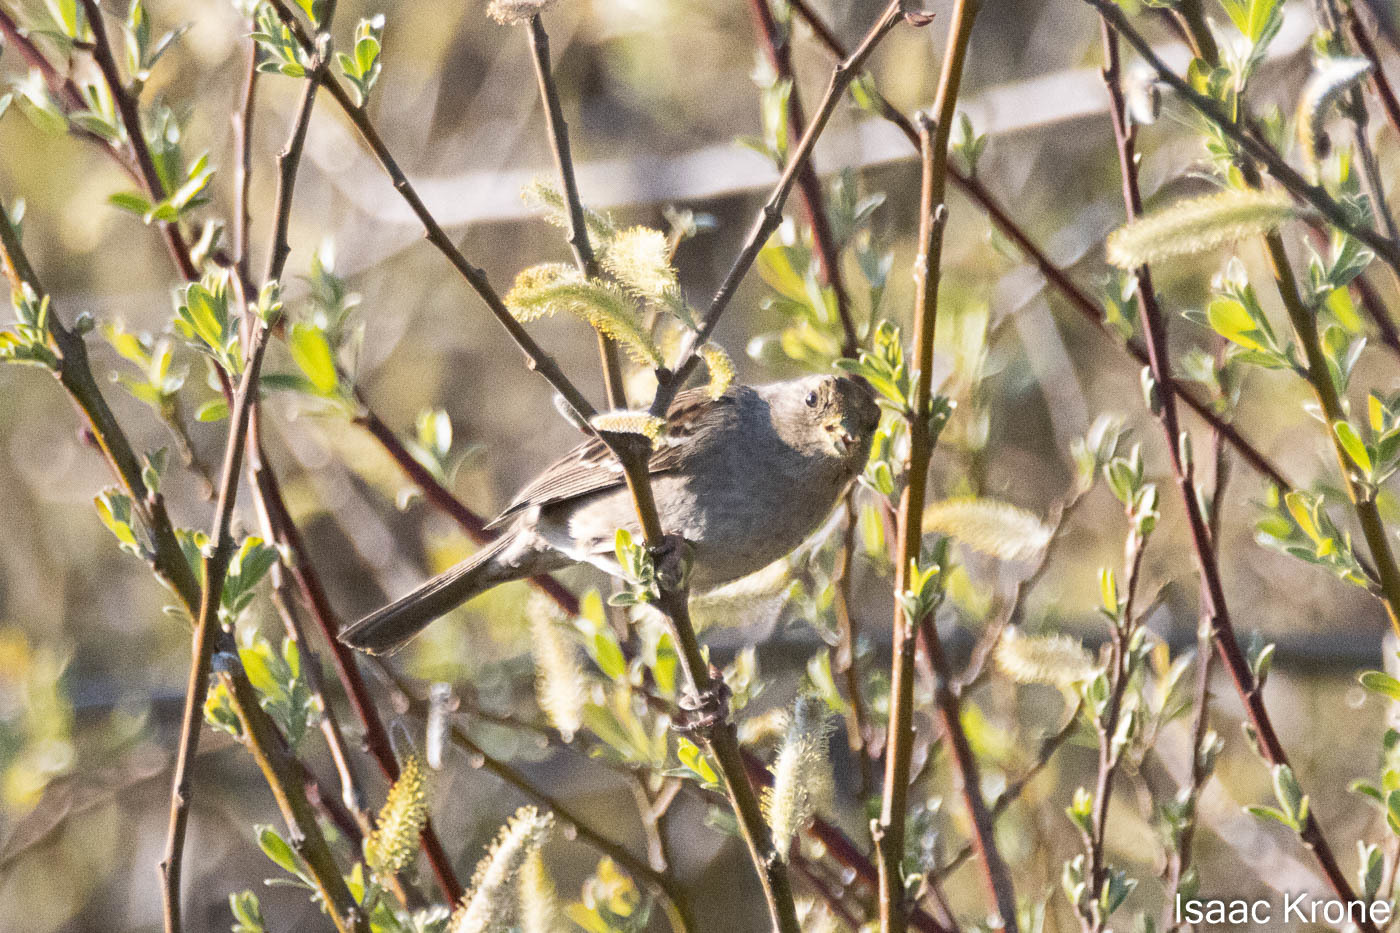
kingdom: Animalia
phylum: Chordata
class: Aves
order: Passeriformes
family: Passerellidae
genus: Zonotrichia
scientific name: Zonotrichia atricapilla
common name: Golden-crowned sparrow
